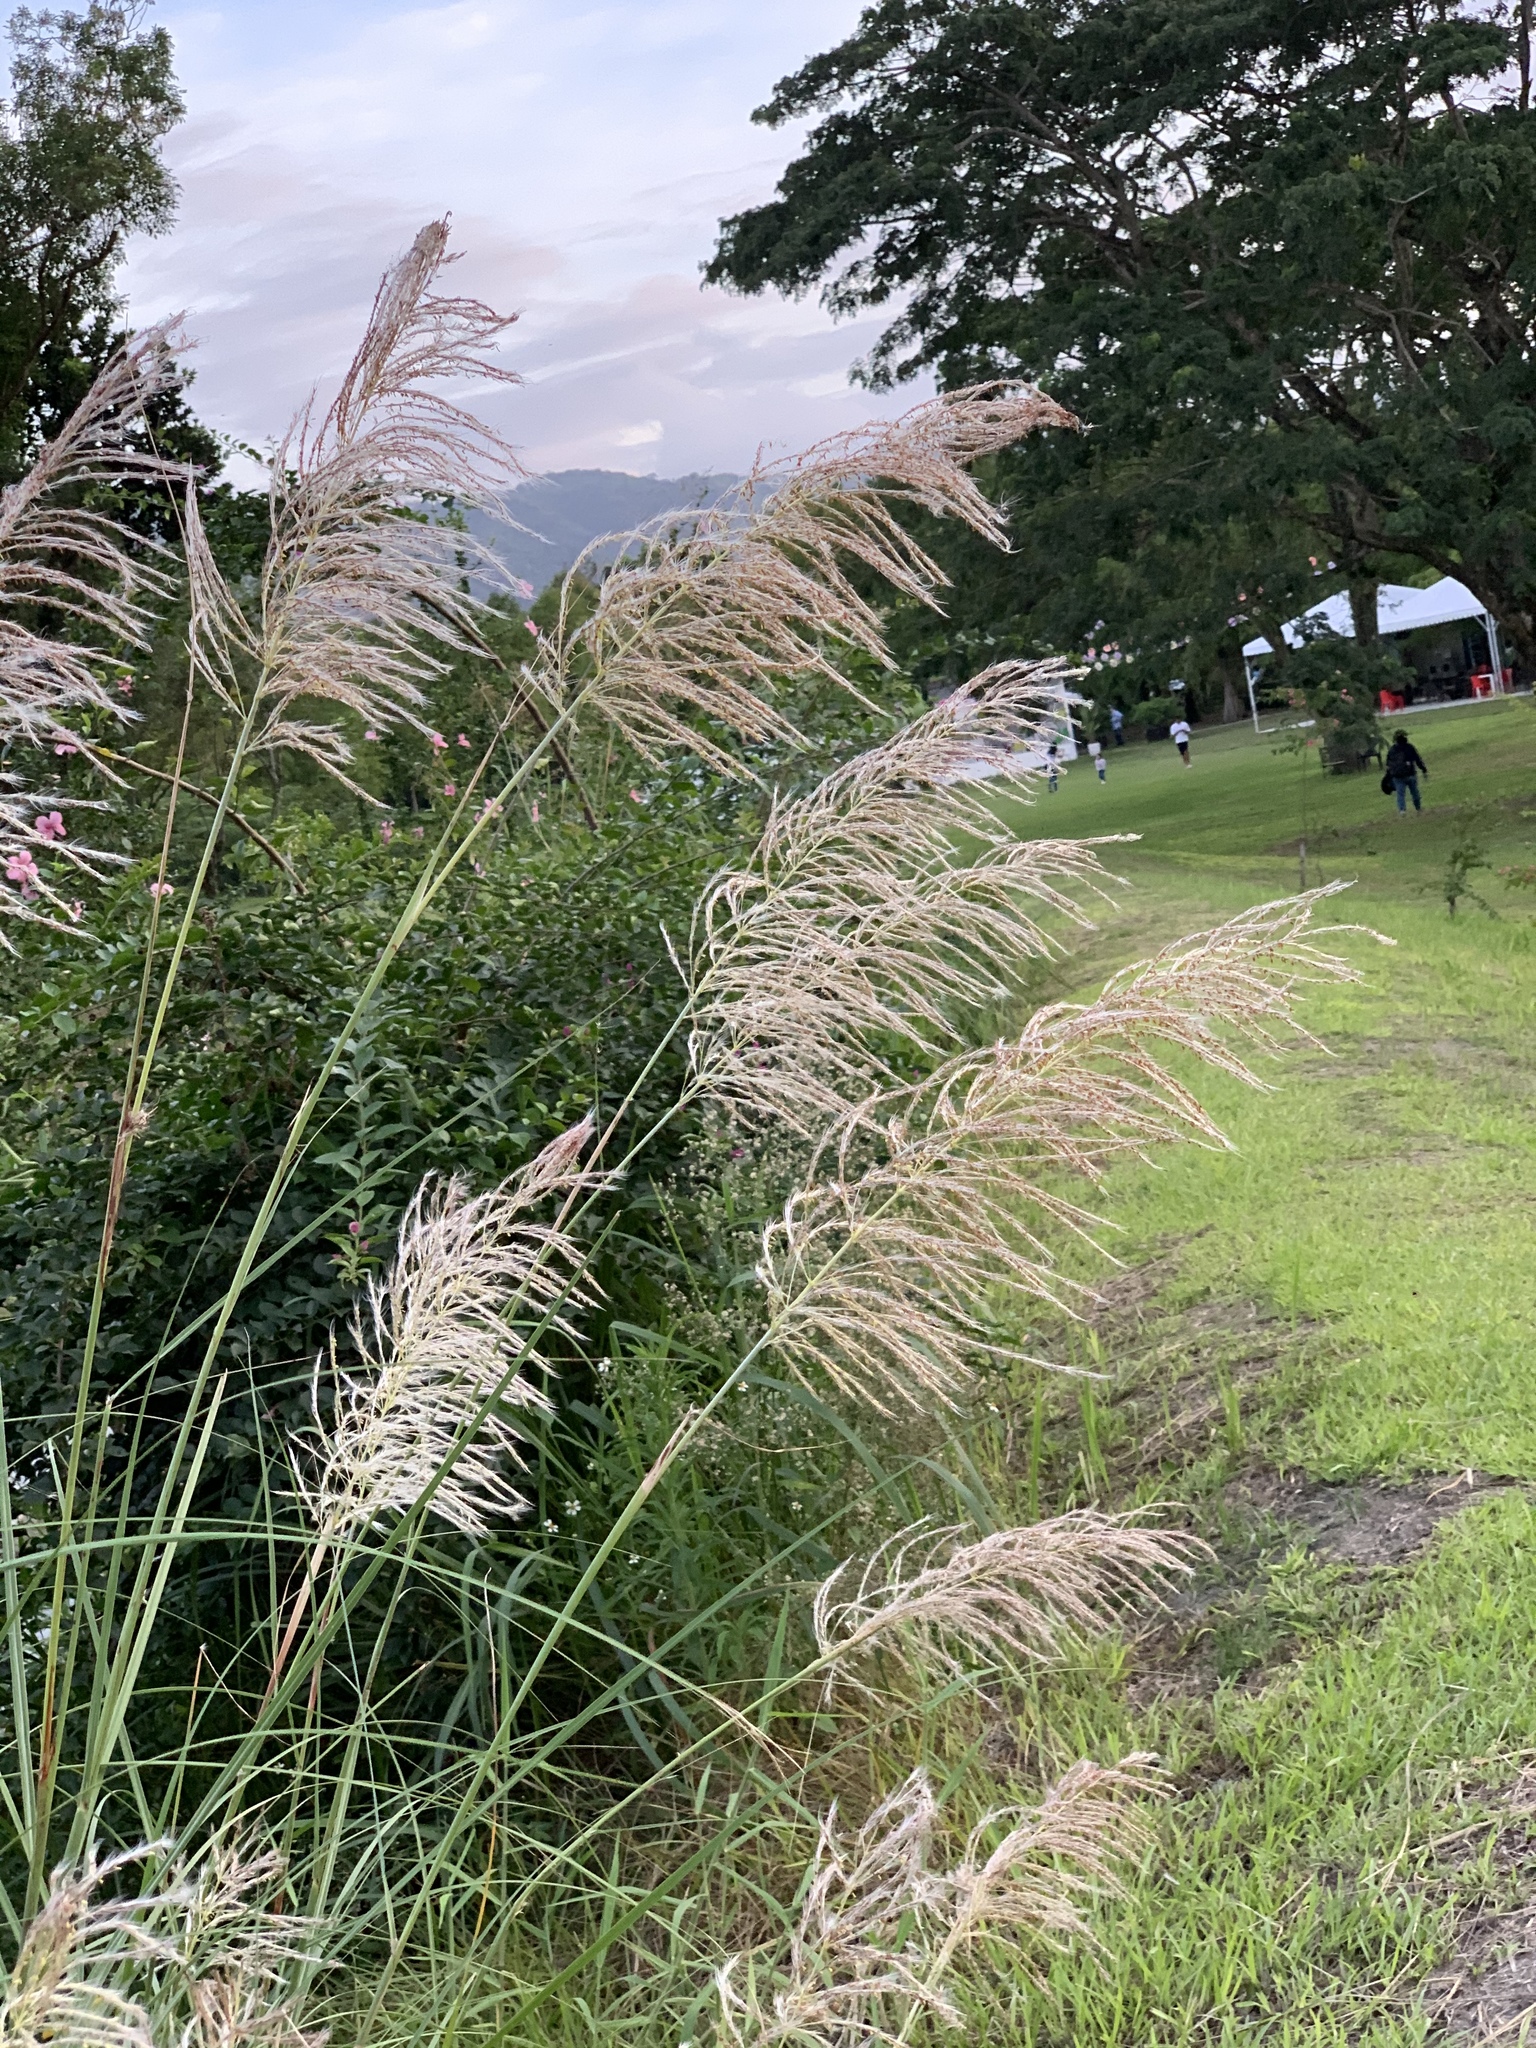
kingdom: Plantae
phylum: Tracheophyta
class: Liliopsida
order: Poales
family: Poaceae
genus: Miscanthus
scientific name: Miscanthus sinensis
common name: Chinese silvergrass
